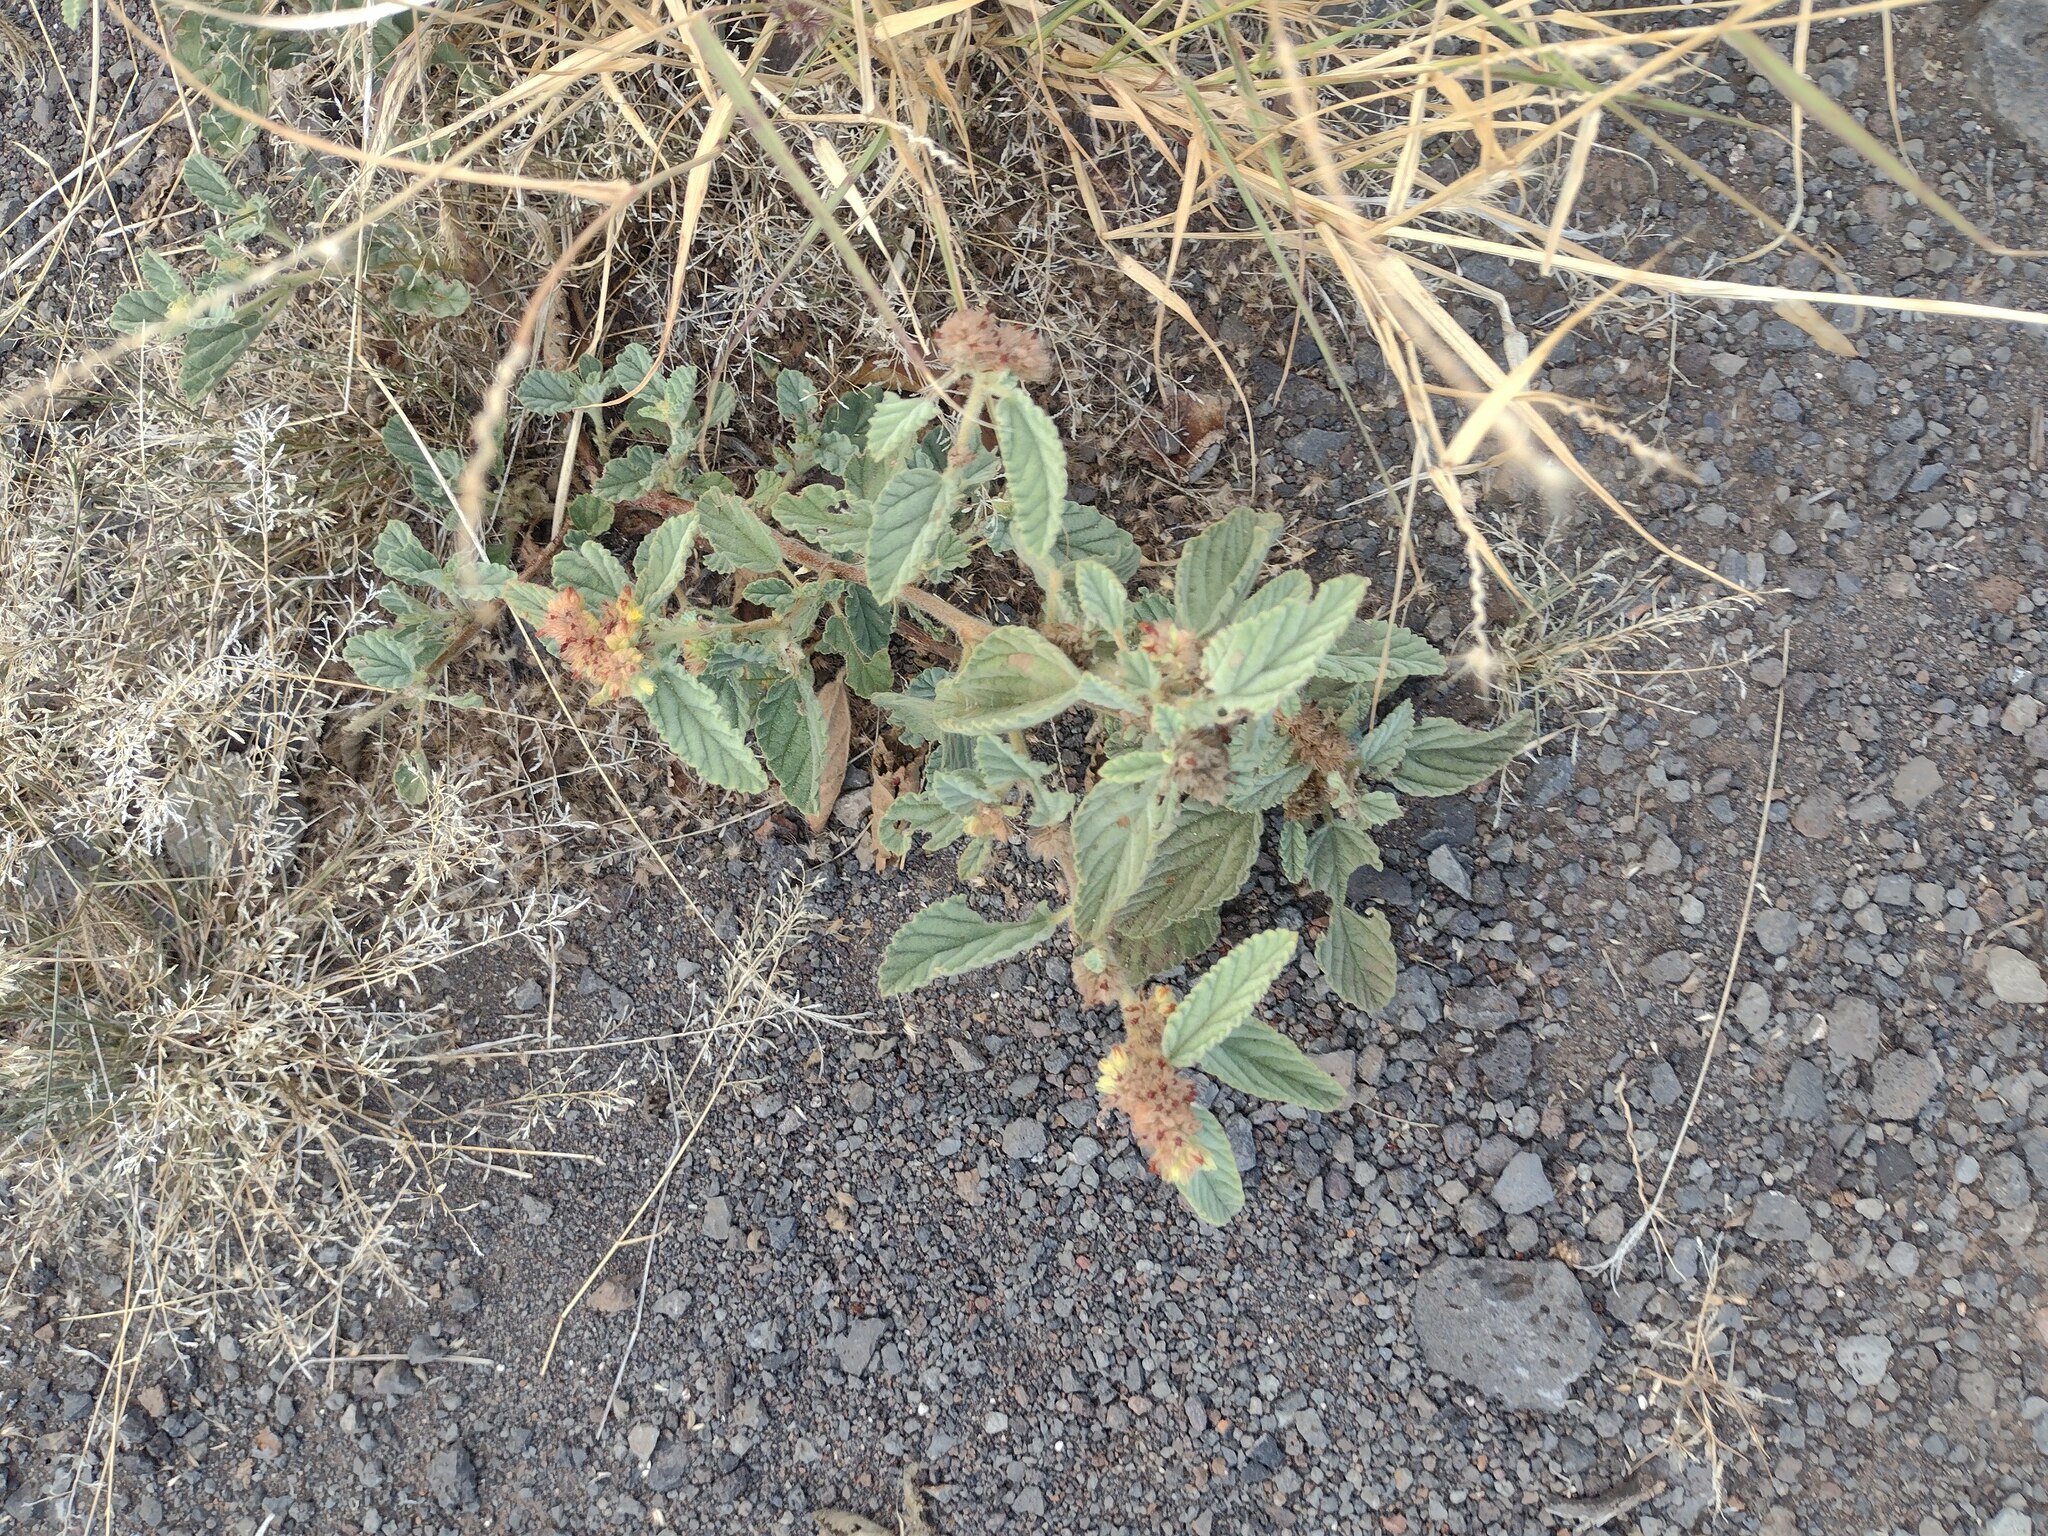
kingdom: Plantae
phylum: Tracheophyta
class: Magnoliopsida
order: Malvales
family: Malvaceae
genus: Waltheria
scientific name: Waltheria indica
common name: Leather-coat
